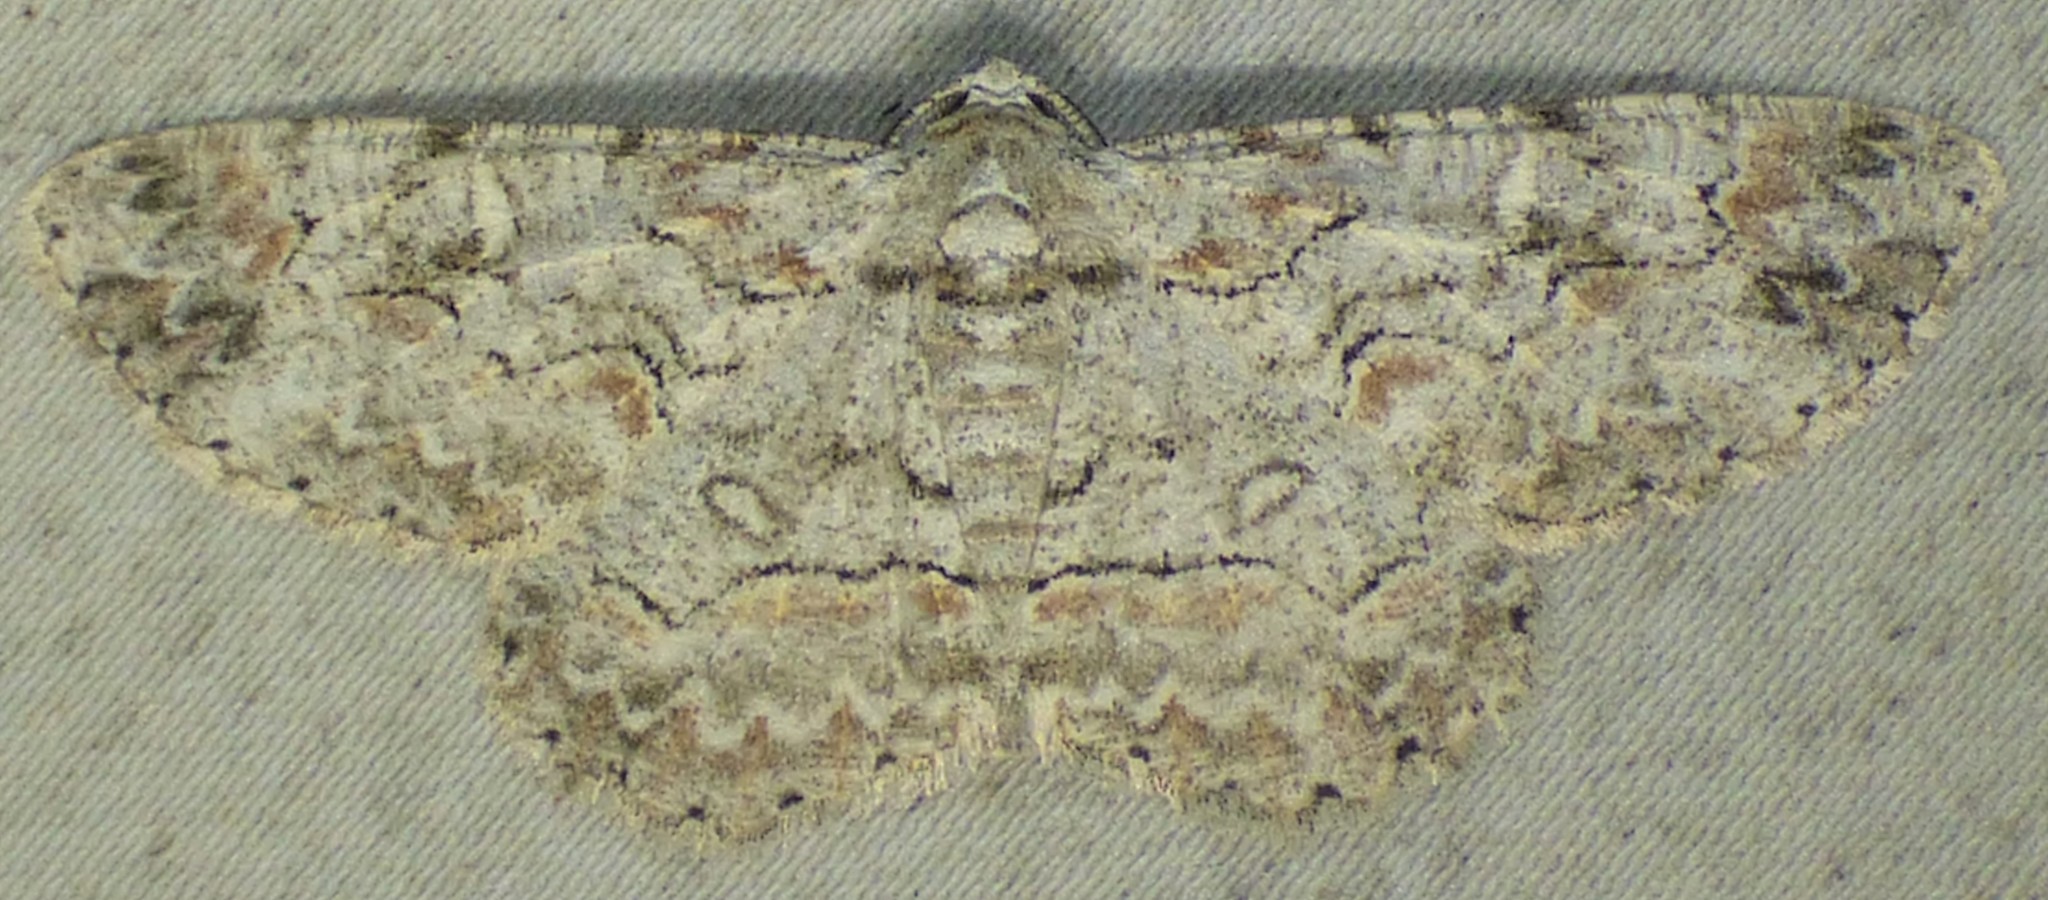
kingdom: Animalia
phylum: Arthropoda
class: Insecta
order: Lepidoptera
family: Geometridae
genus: Iridopsis
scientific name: Iridopsis defectaria
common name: Brown-shaded gray
